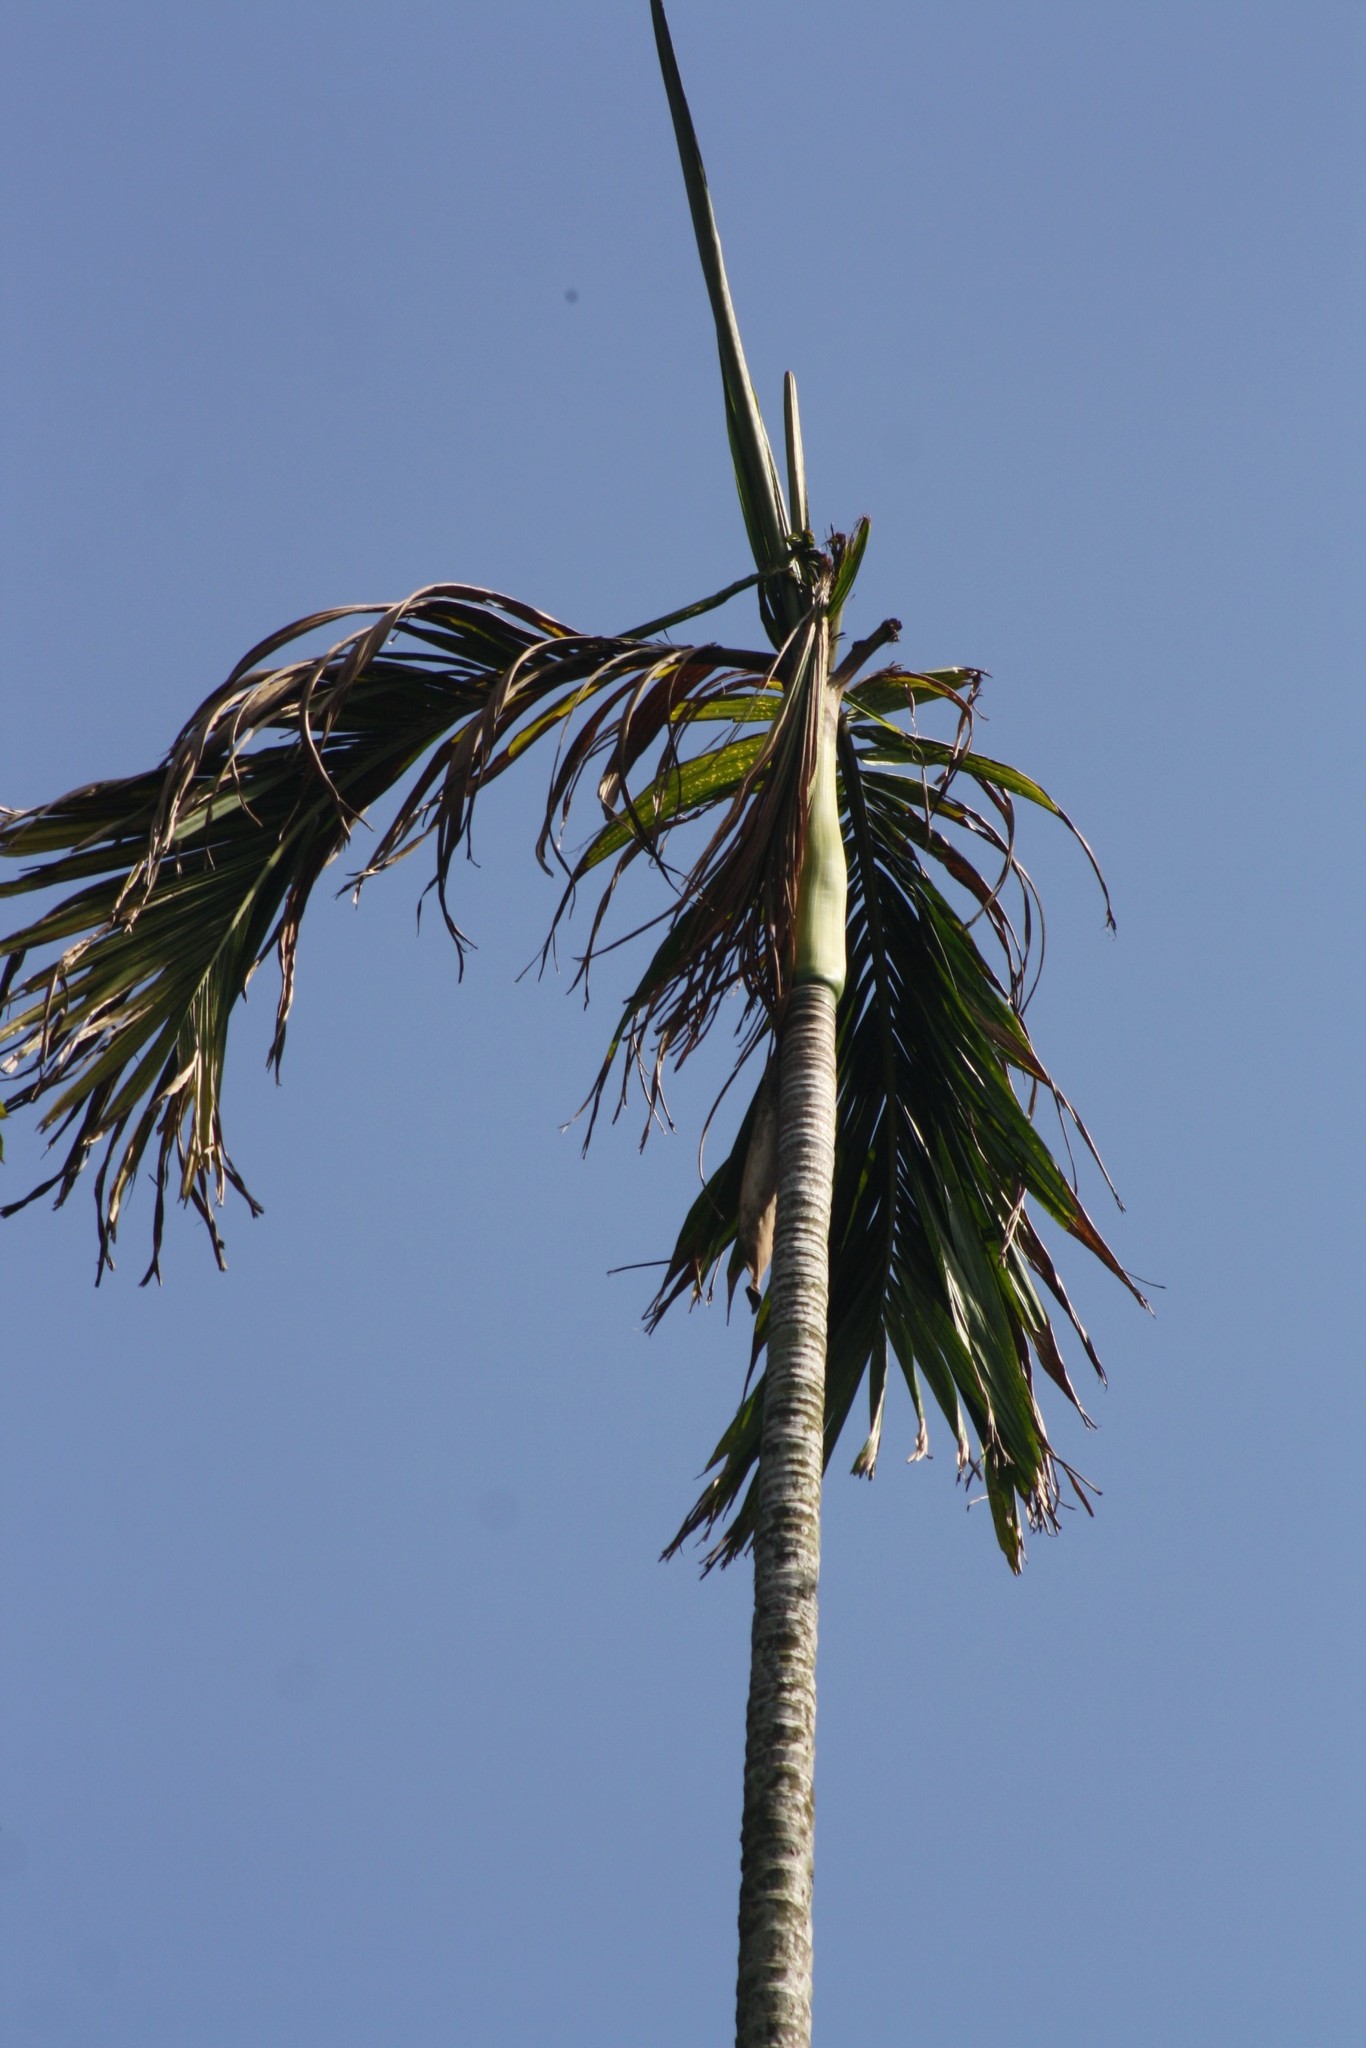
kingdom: Plantae
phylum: Tracheophyta
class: Liliopsida
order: Arecales
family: Arecaceae
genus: Areca
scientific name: Areca catechu
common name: Indian-nut
